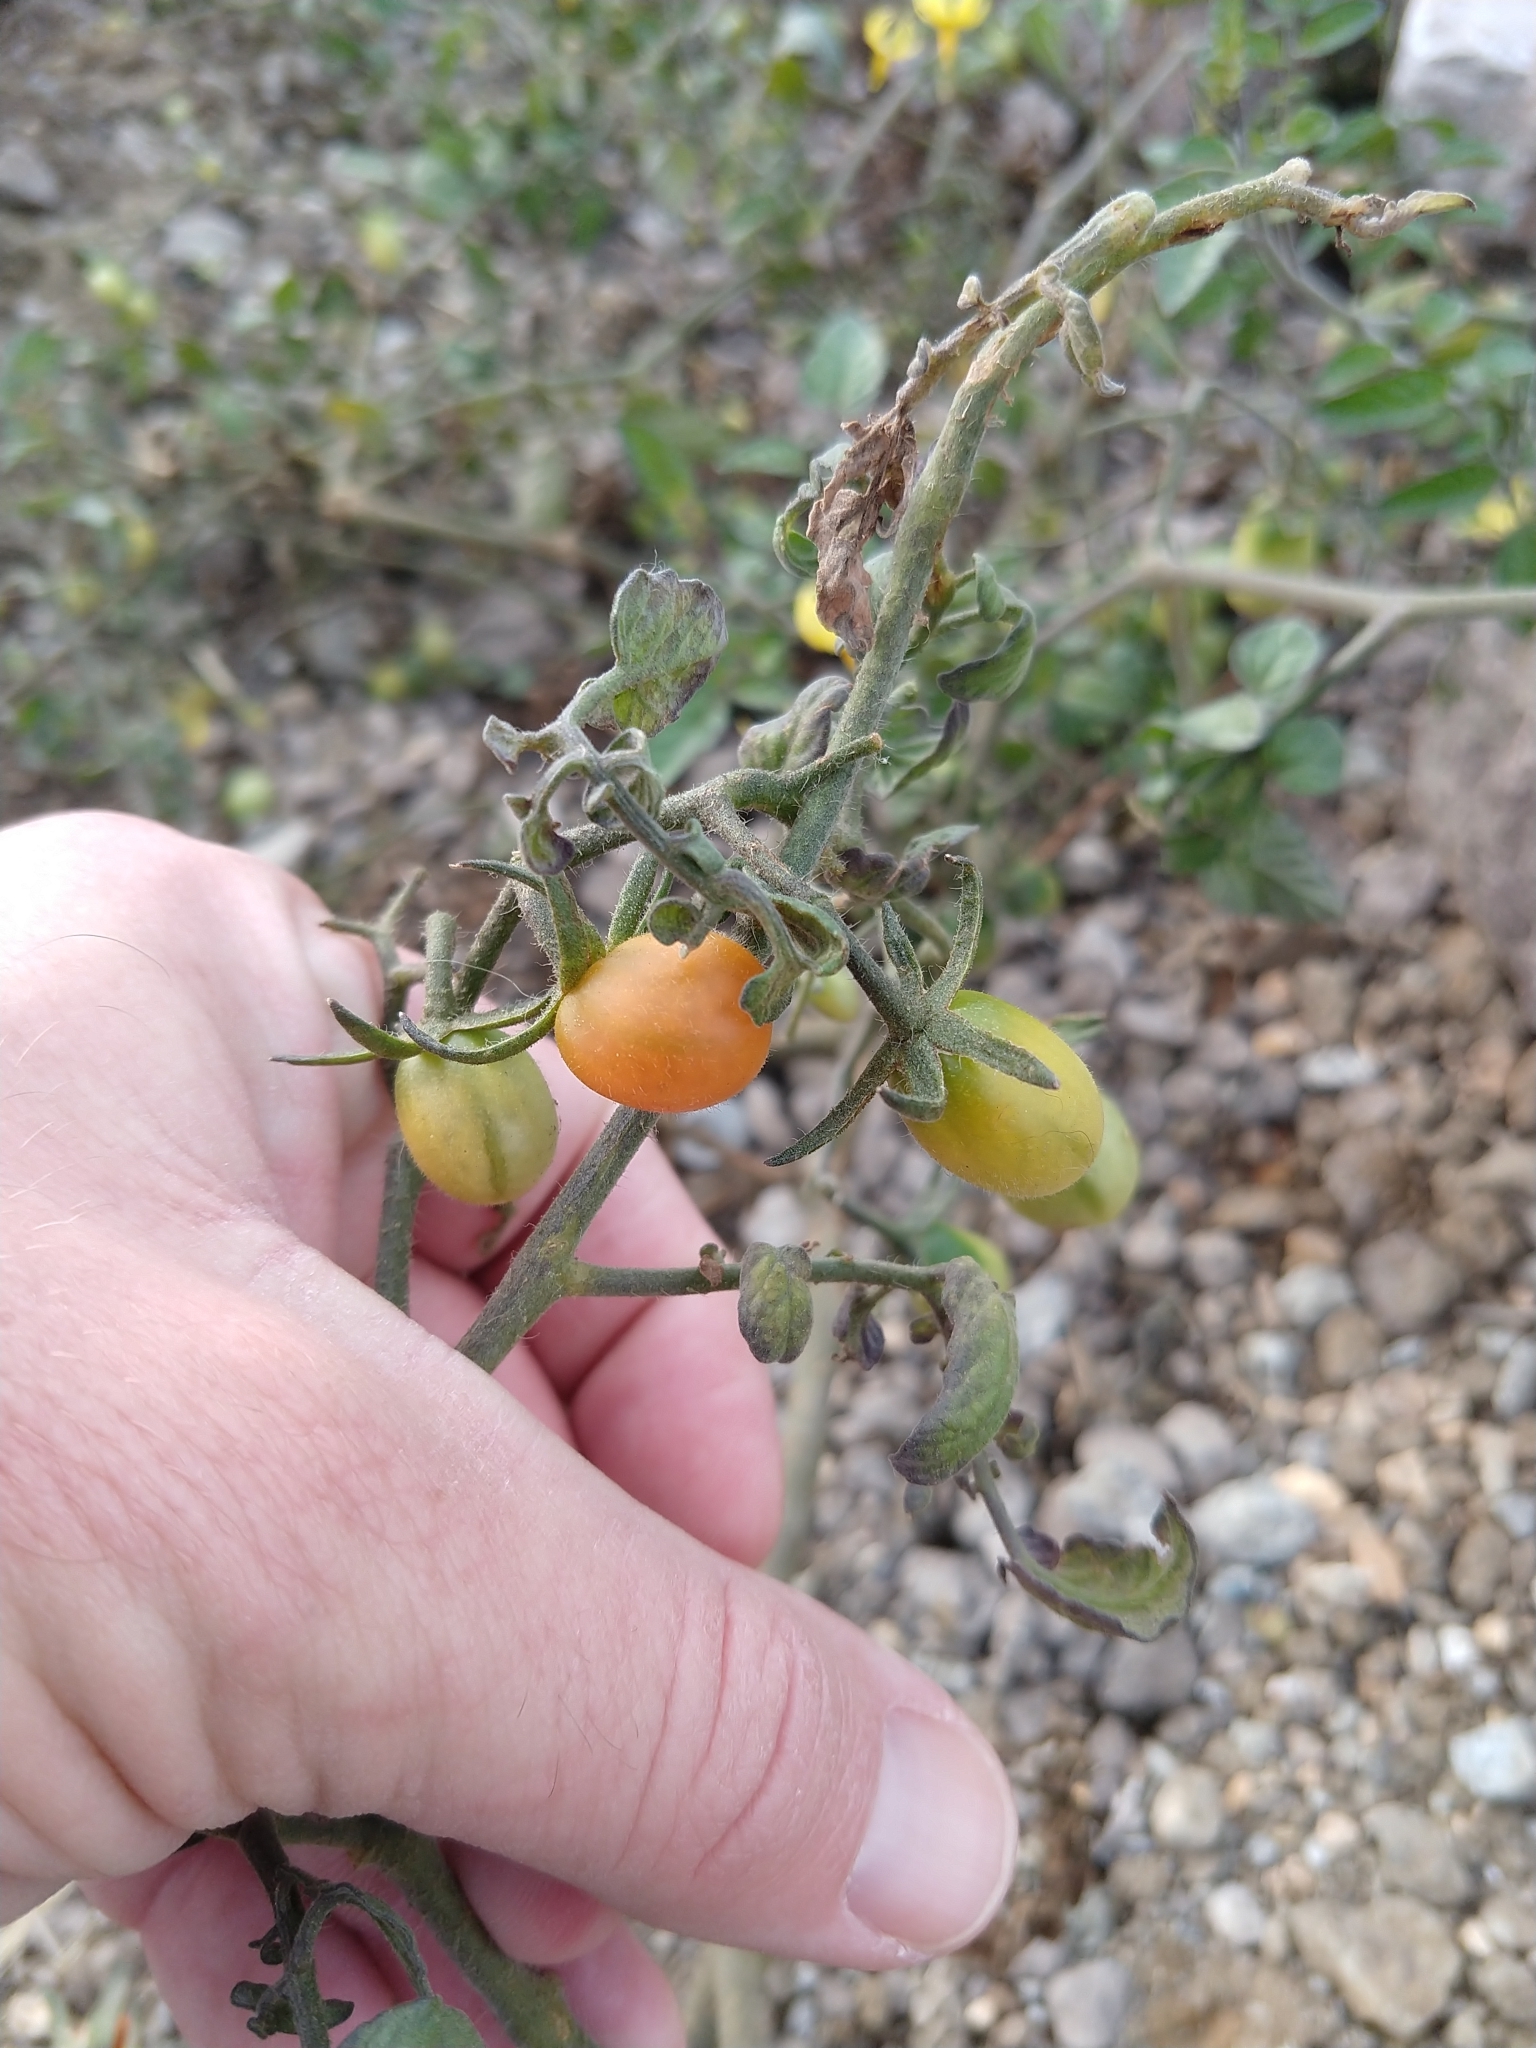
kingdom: Plantae
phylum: Tracheophyta
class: Magnoliopsida
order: Solanales
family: Solanaceae
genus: Solanum
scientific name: Solanum lycopersicum
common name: Garden tomato
